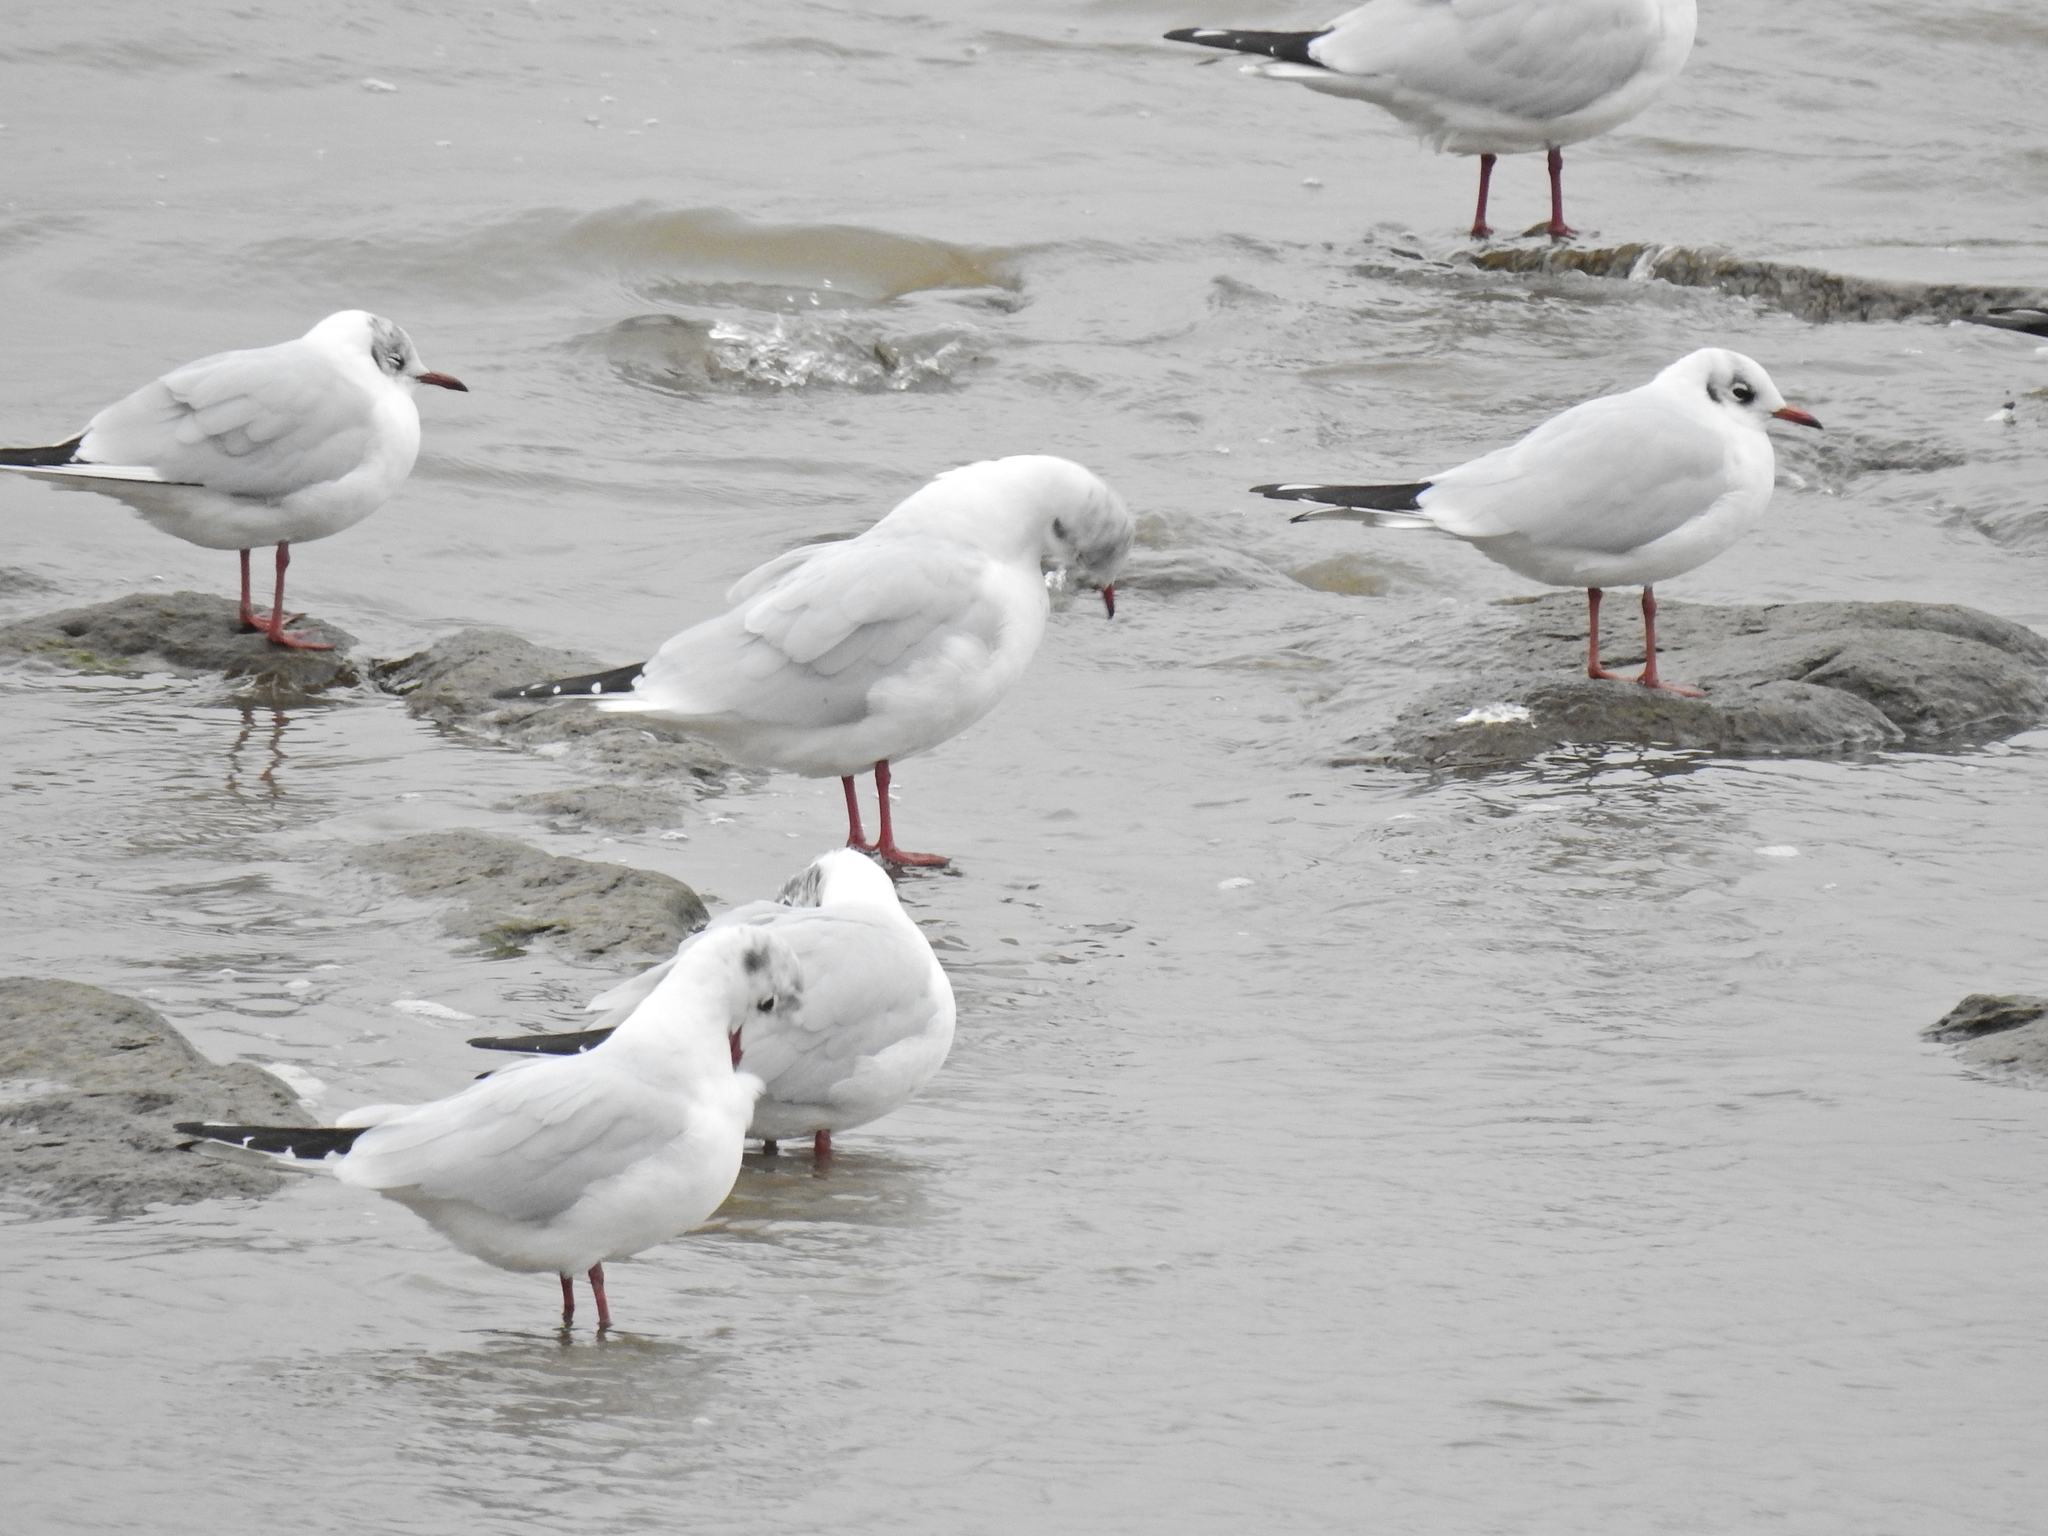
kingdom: Animalia
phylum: Chordata
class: Aves
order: Charadriiformes
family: Laridae
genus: Chroicocephalus
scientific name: Chroicocephalus ridibundus
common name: Black-headed gull
